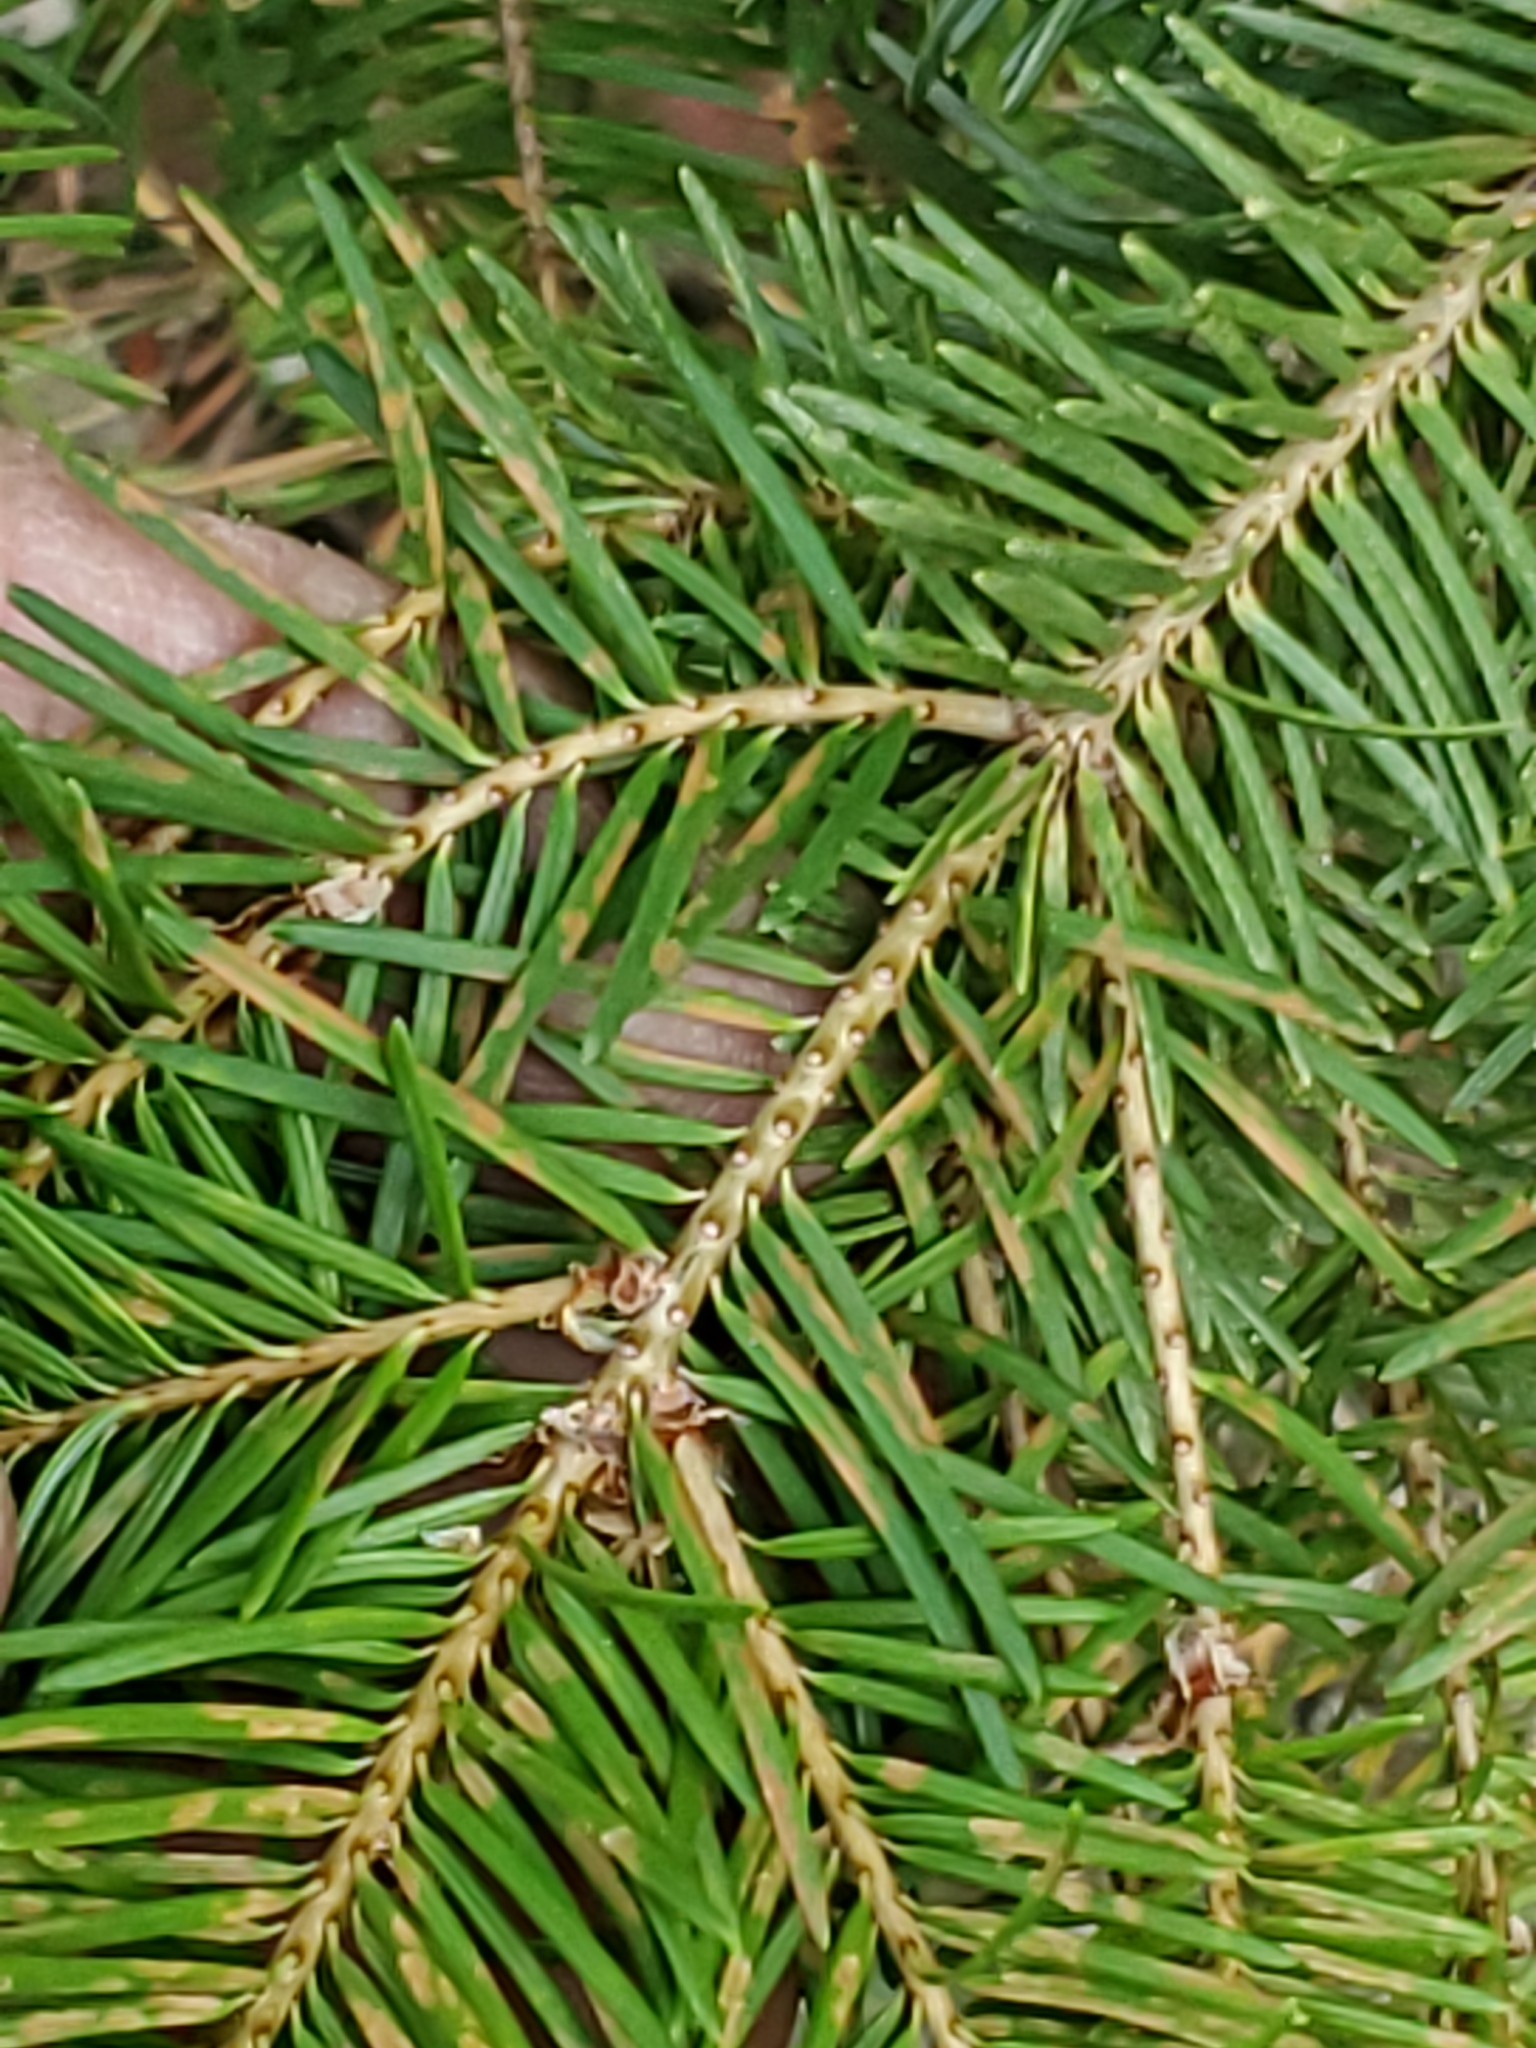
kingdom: Plantae
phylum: Tracheophyta
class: Pinopsida
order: Pinales
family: Pinaceae
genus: Pseudotsuga
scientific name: Pseudotsuga menziesii
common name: Douglas fir
